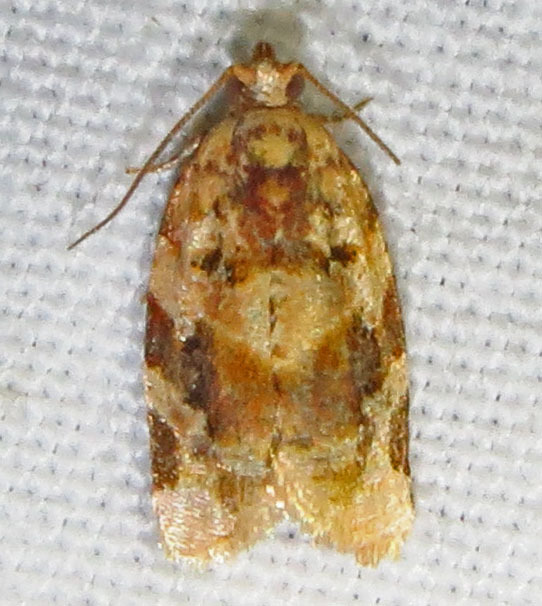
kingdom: Animalia
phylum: Arthropoda
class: Insecta
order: Lepidoptera
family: Tortricidae
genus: Argyrotaenia
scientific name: Argyrotaenia velutinana
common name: Red-banded leafroller moth
